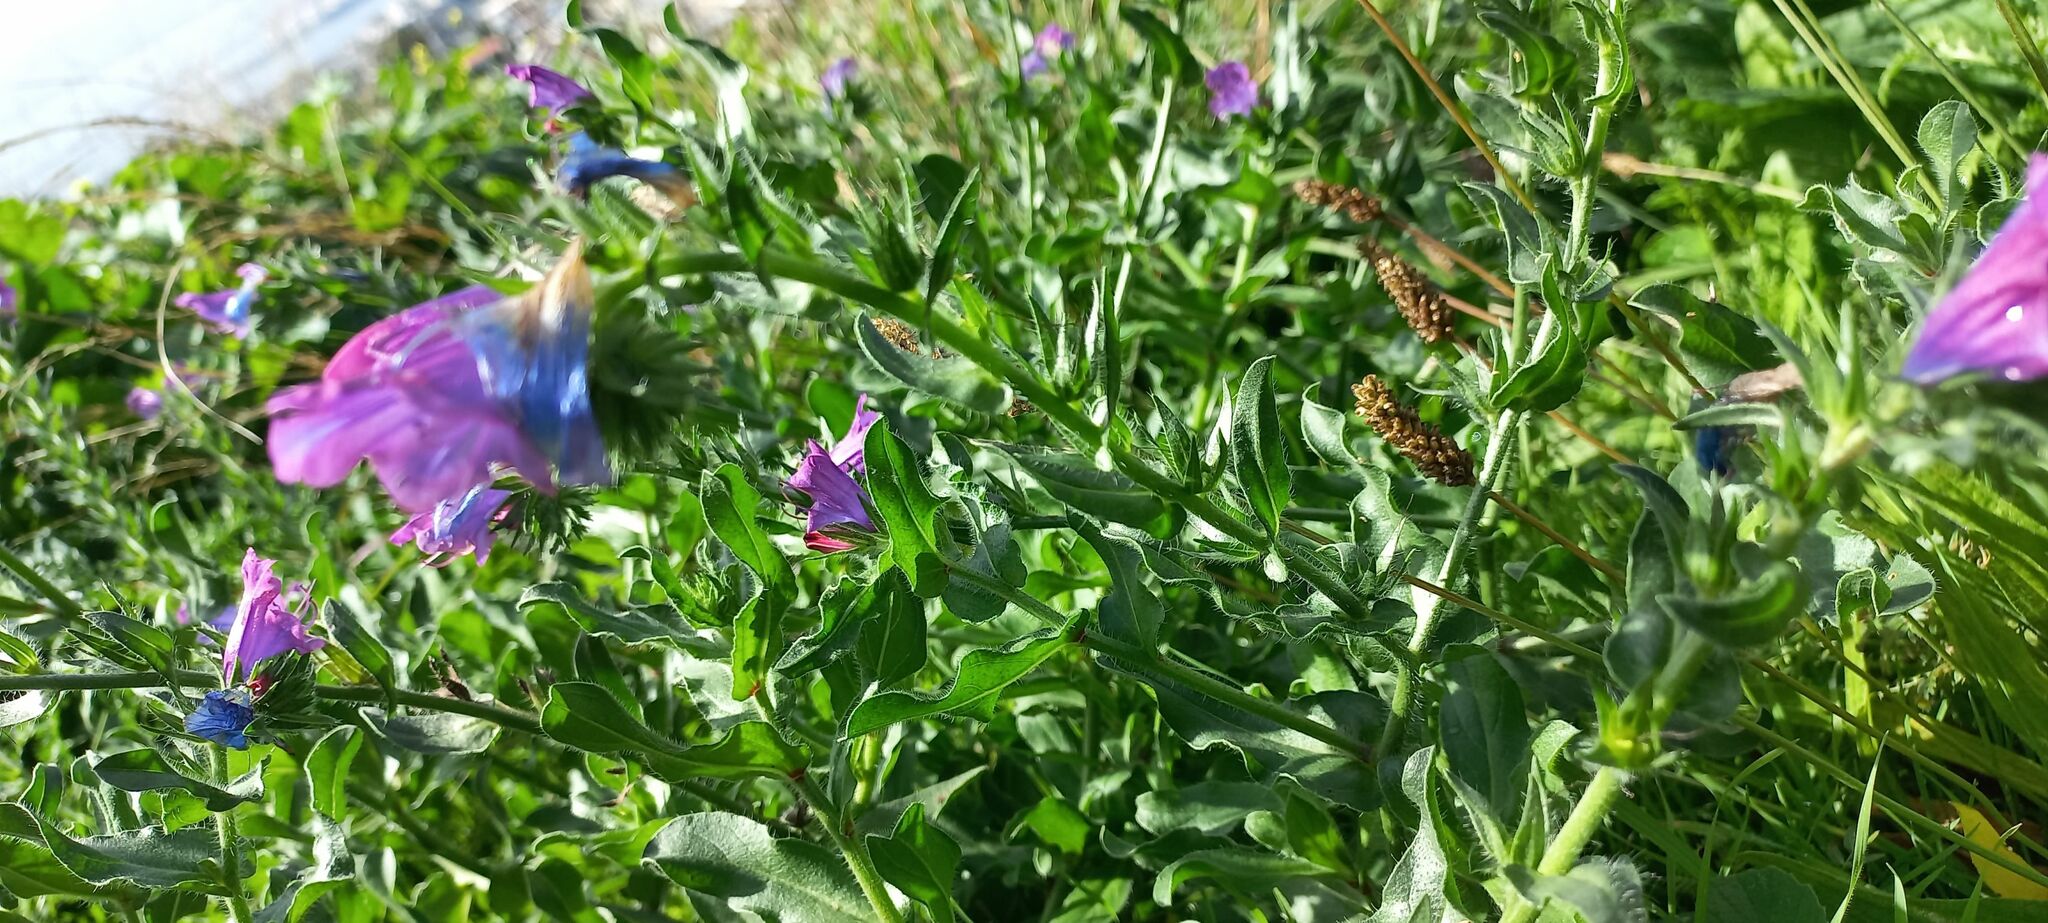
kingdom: Plantae
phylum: Tracheophyta
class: Magnoliopsida
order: Boraginales
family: Boraginaceae
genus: Echium
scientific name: Echium plantagineum
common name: Purple viper's-bugloss
